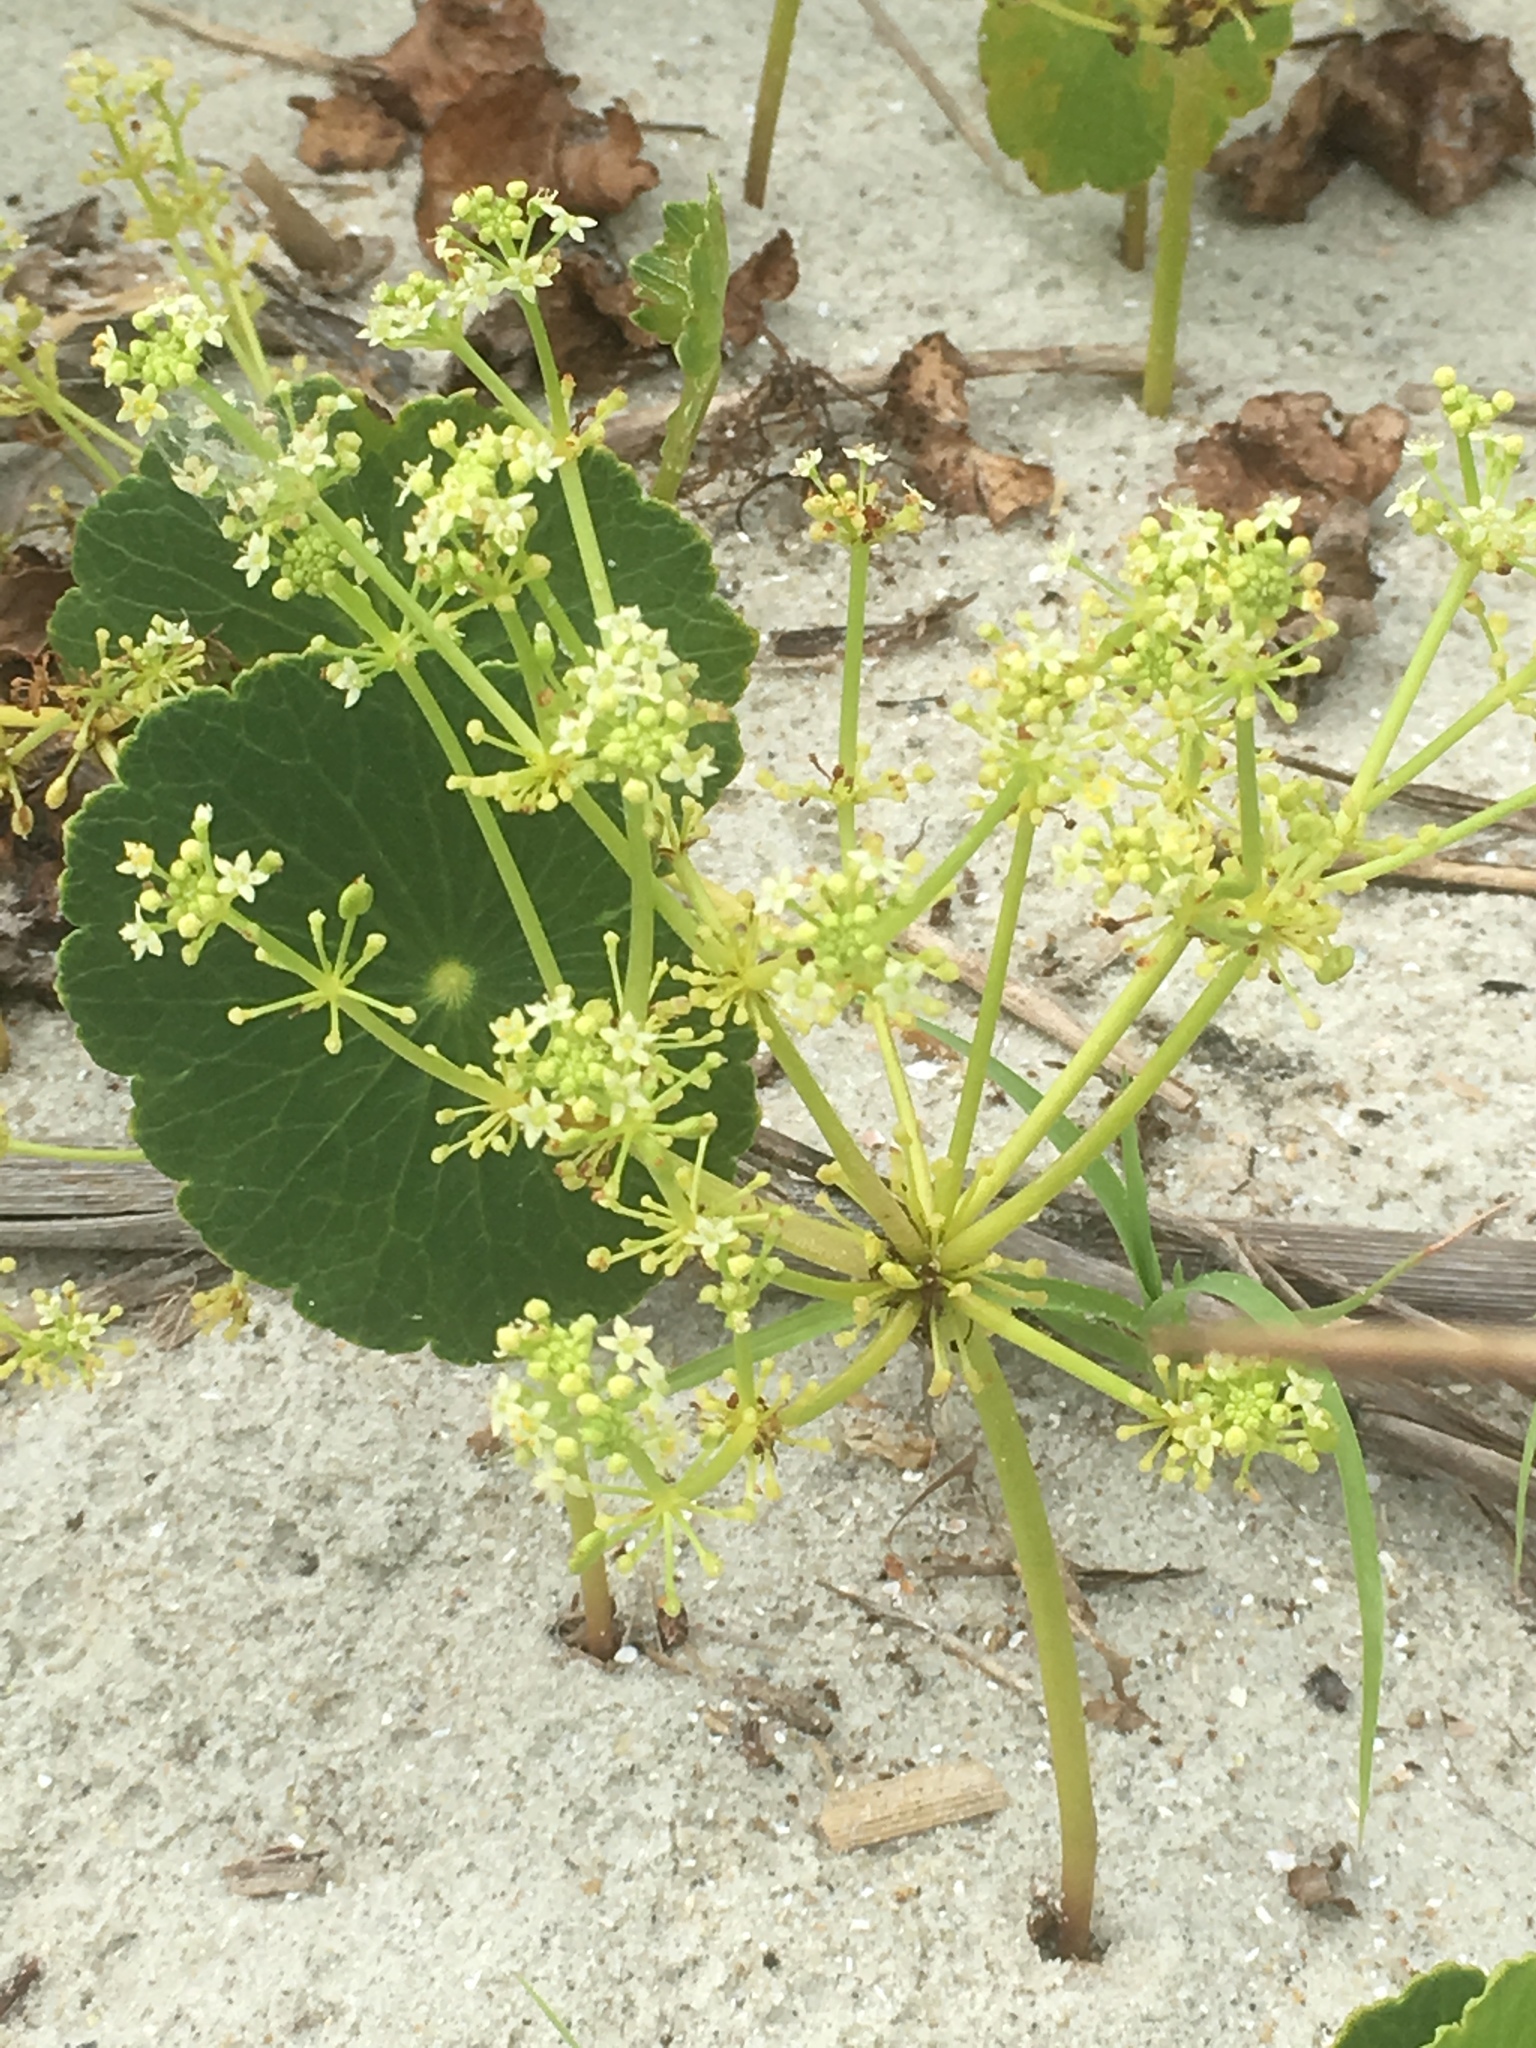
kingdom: Plantae
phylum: Tracheophyta
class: Magnoliopsida
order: Apiales
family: Araliaceae
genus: Hydrocotyle
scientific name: Hydrocotyle bonariensis
